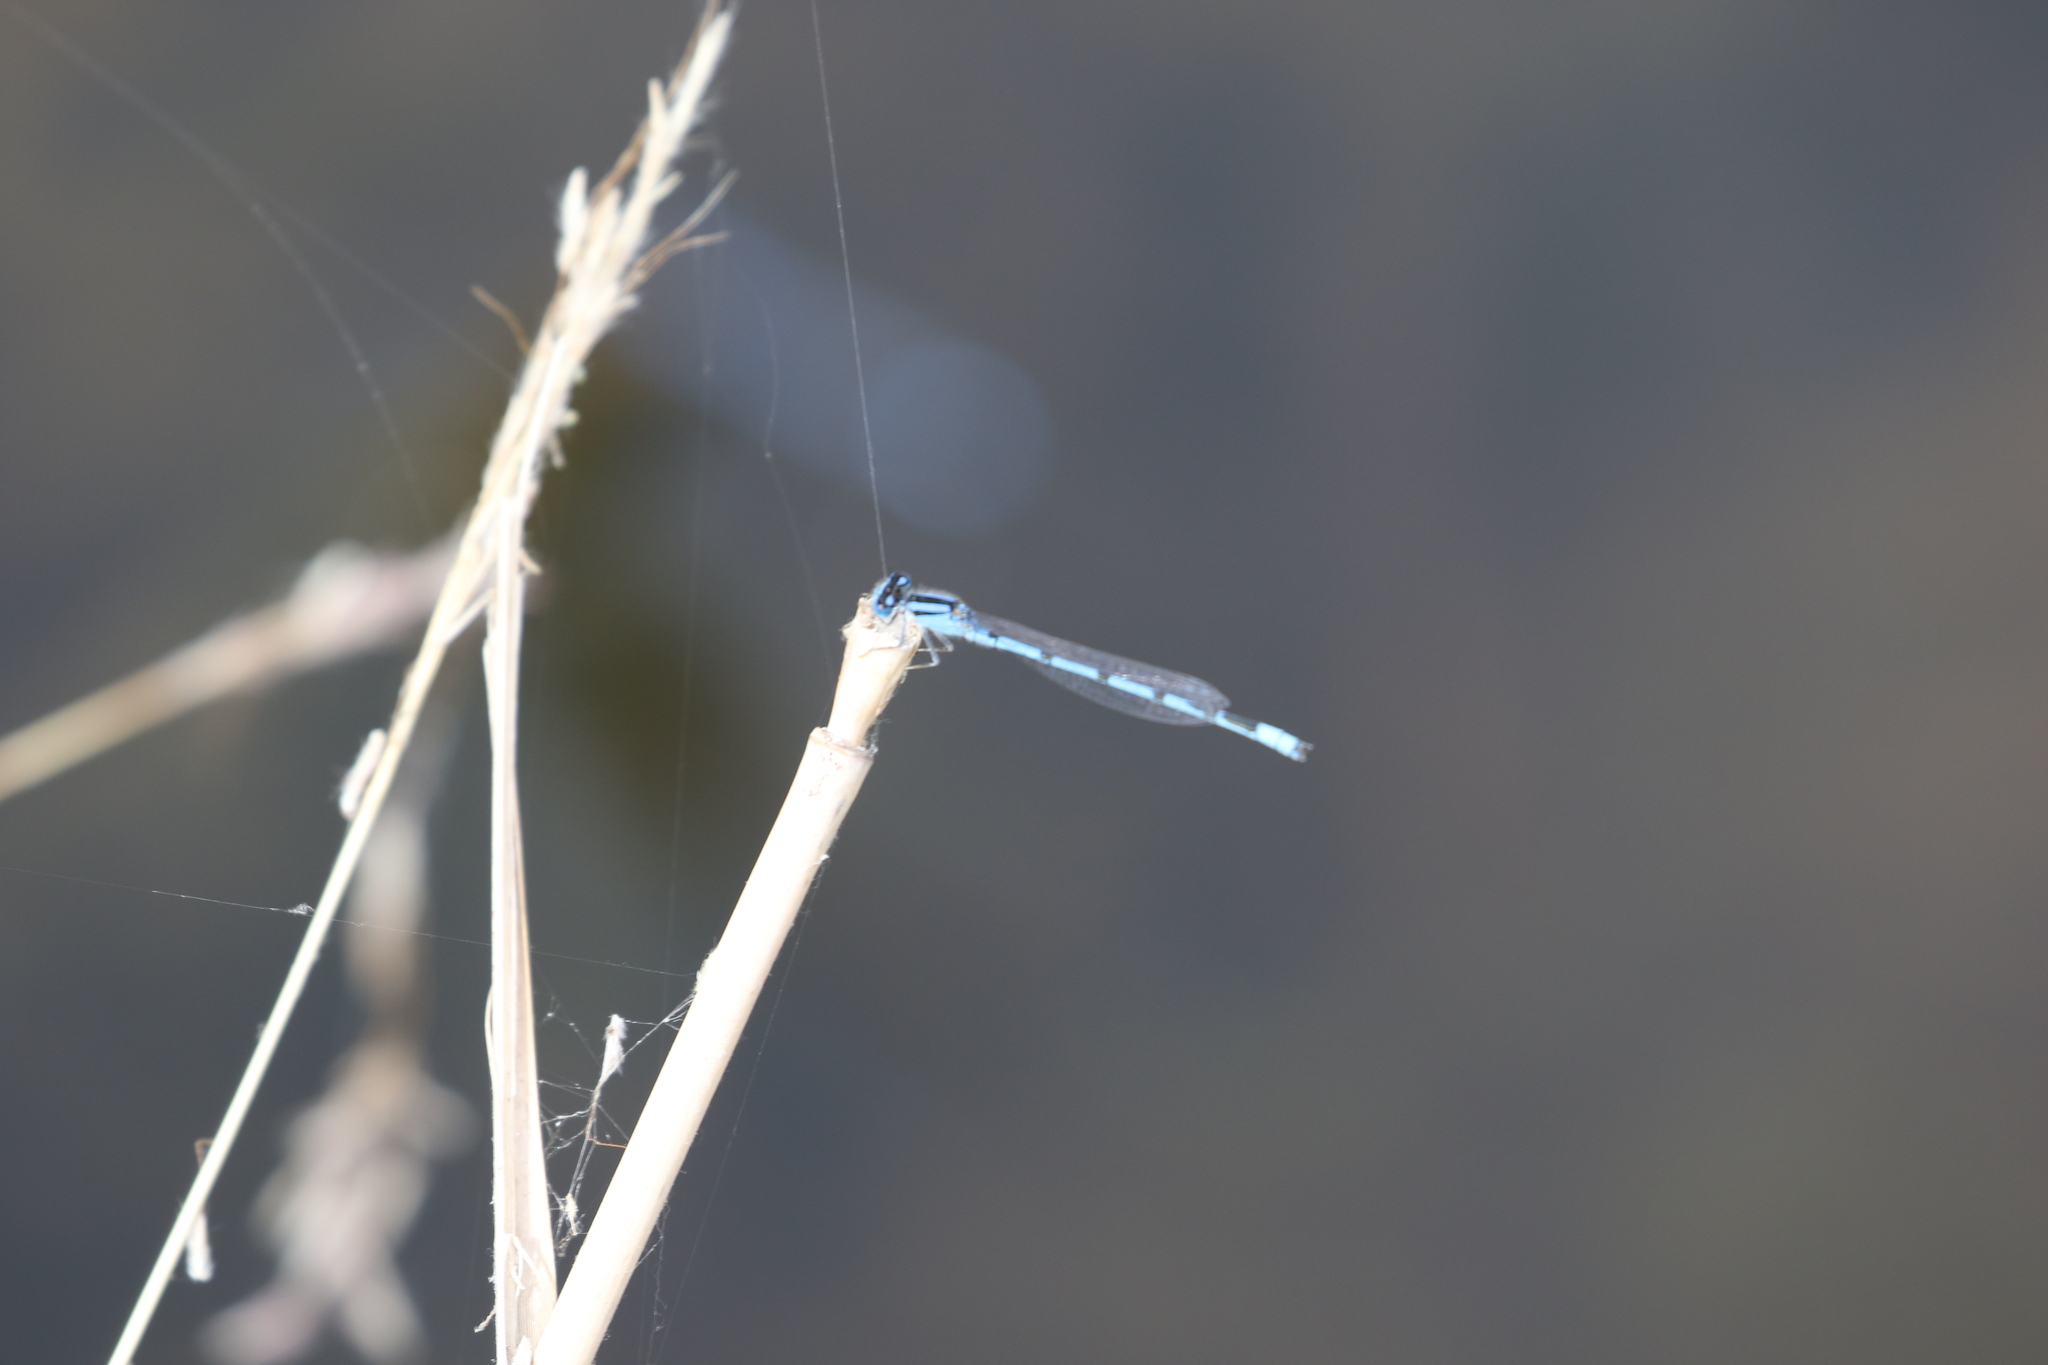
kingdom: Animalia
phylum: Arthropoda
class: Insecta
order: Odonata
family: Coenagrionidae
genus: Enallagma
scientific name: Enallagma civile
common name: Damselfly
